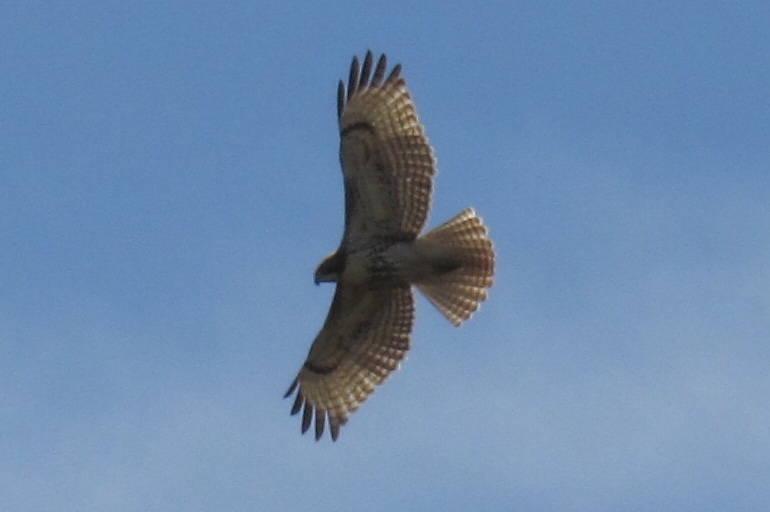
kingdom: Animalia
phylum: Chordata
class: Aves
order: Accipitriformes
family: Accipitridae
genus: Buteo
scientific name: Buteo jamaicensis
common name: Red-tailed hawk
